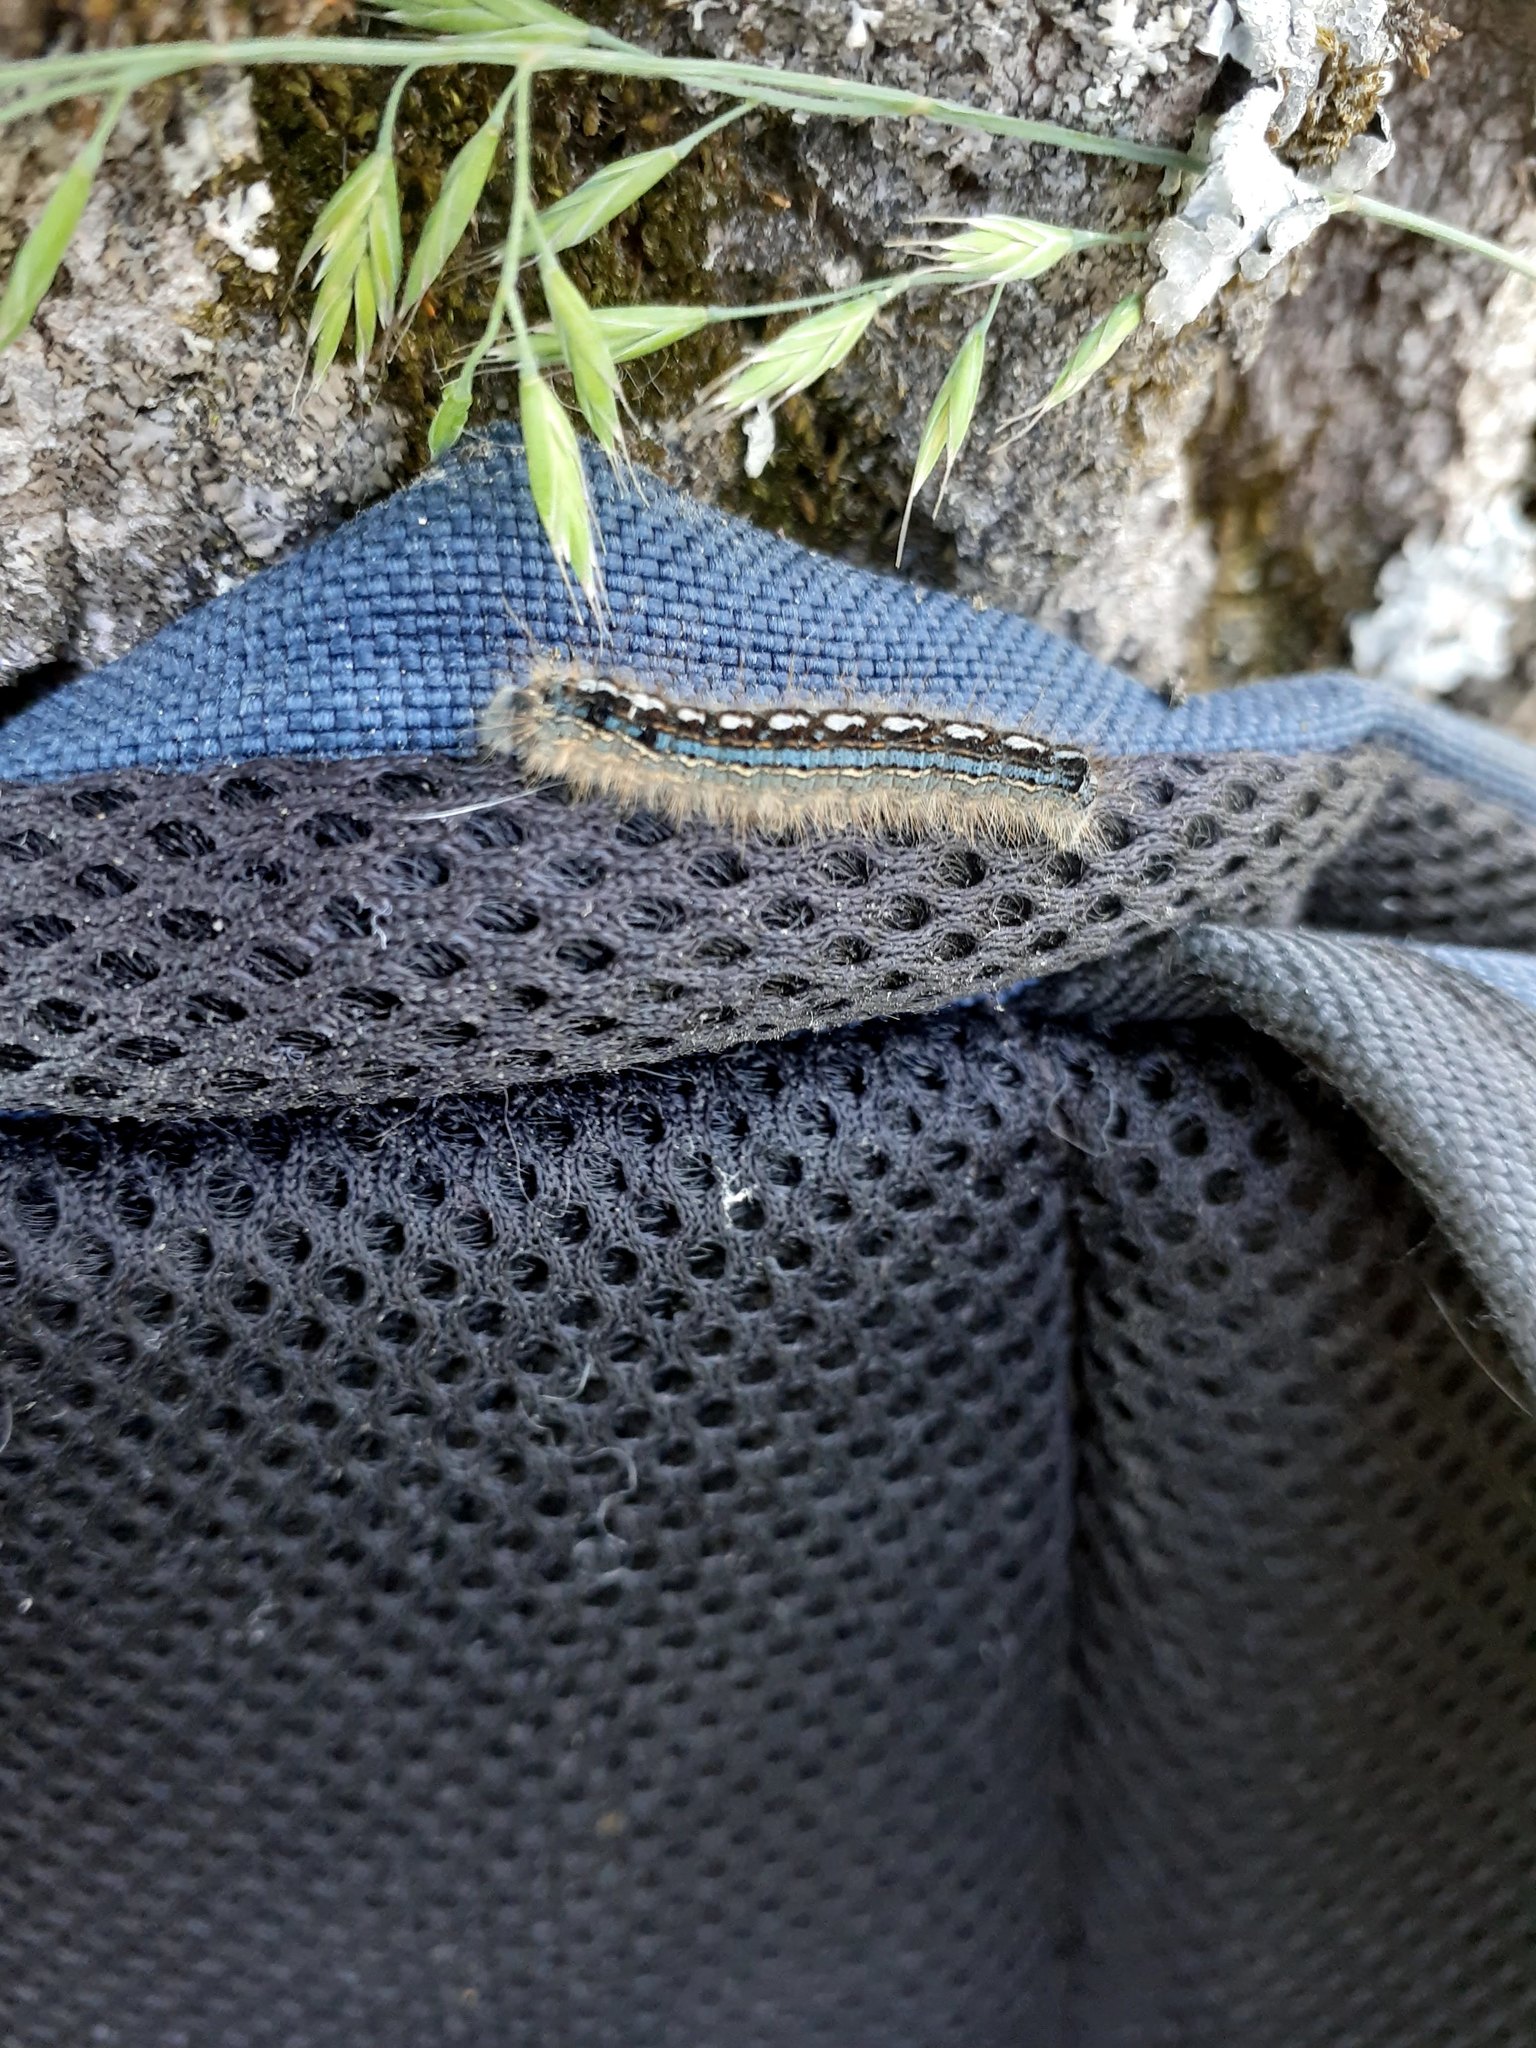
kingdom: Animalia
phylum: Arthropoda
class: Insecta
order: Lepidoptera
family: Lasiocampidae
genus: Malacosoma
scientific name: Malacosoma disstria
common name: Forest tent caterpillar
